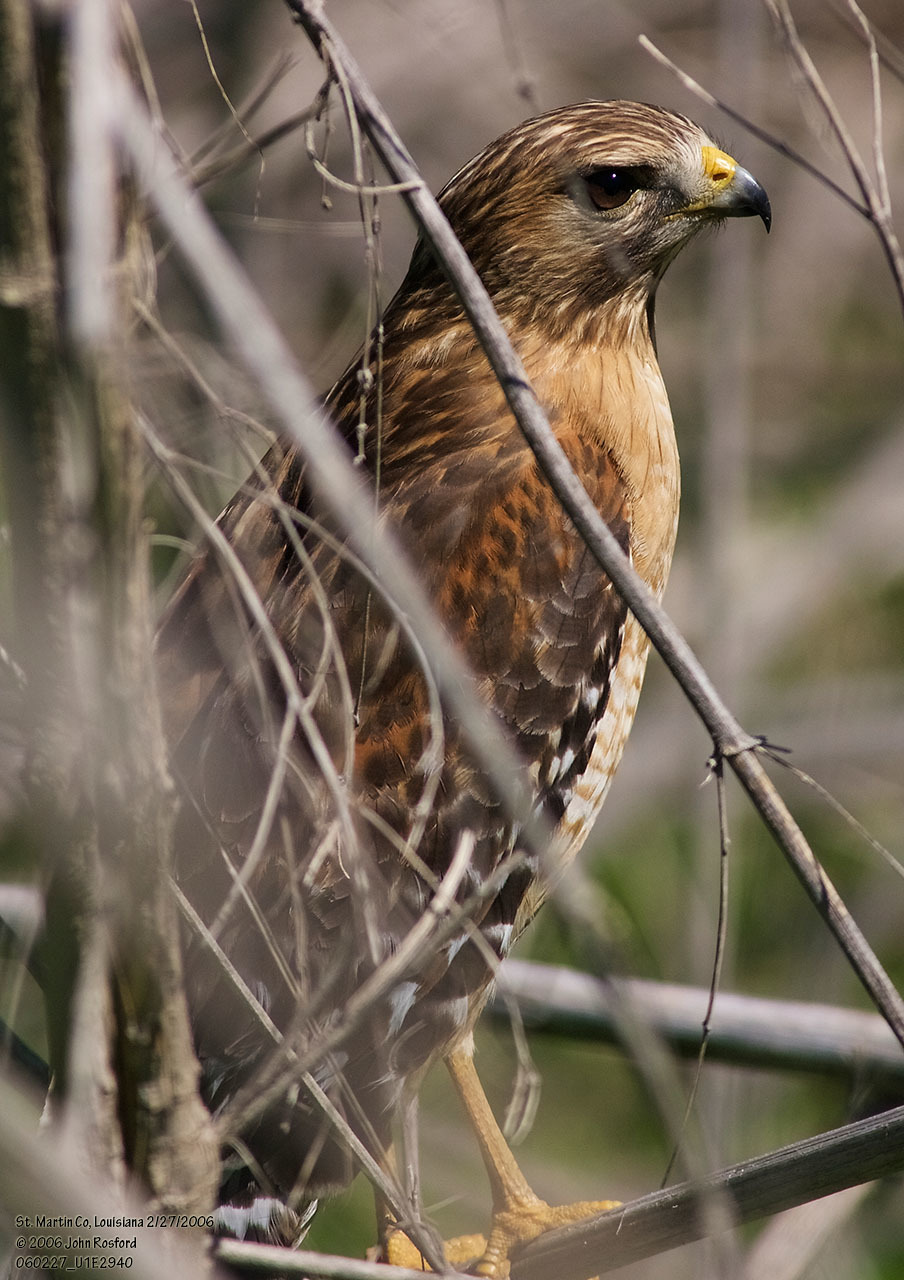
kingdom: Animalia
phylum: Chordata
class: Aves
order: Accipitriformes
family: Accipitridae
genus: Buteo
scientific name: Buteo lineatus
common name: Red-shouldered hawk
